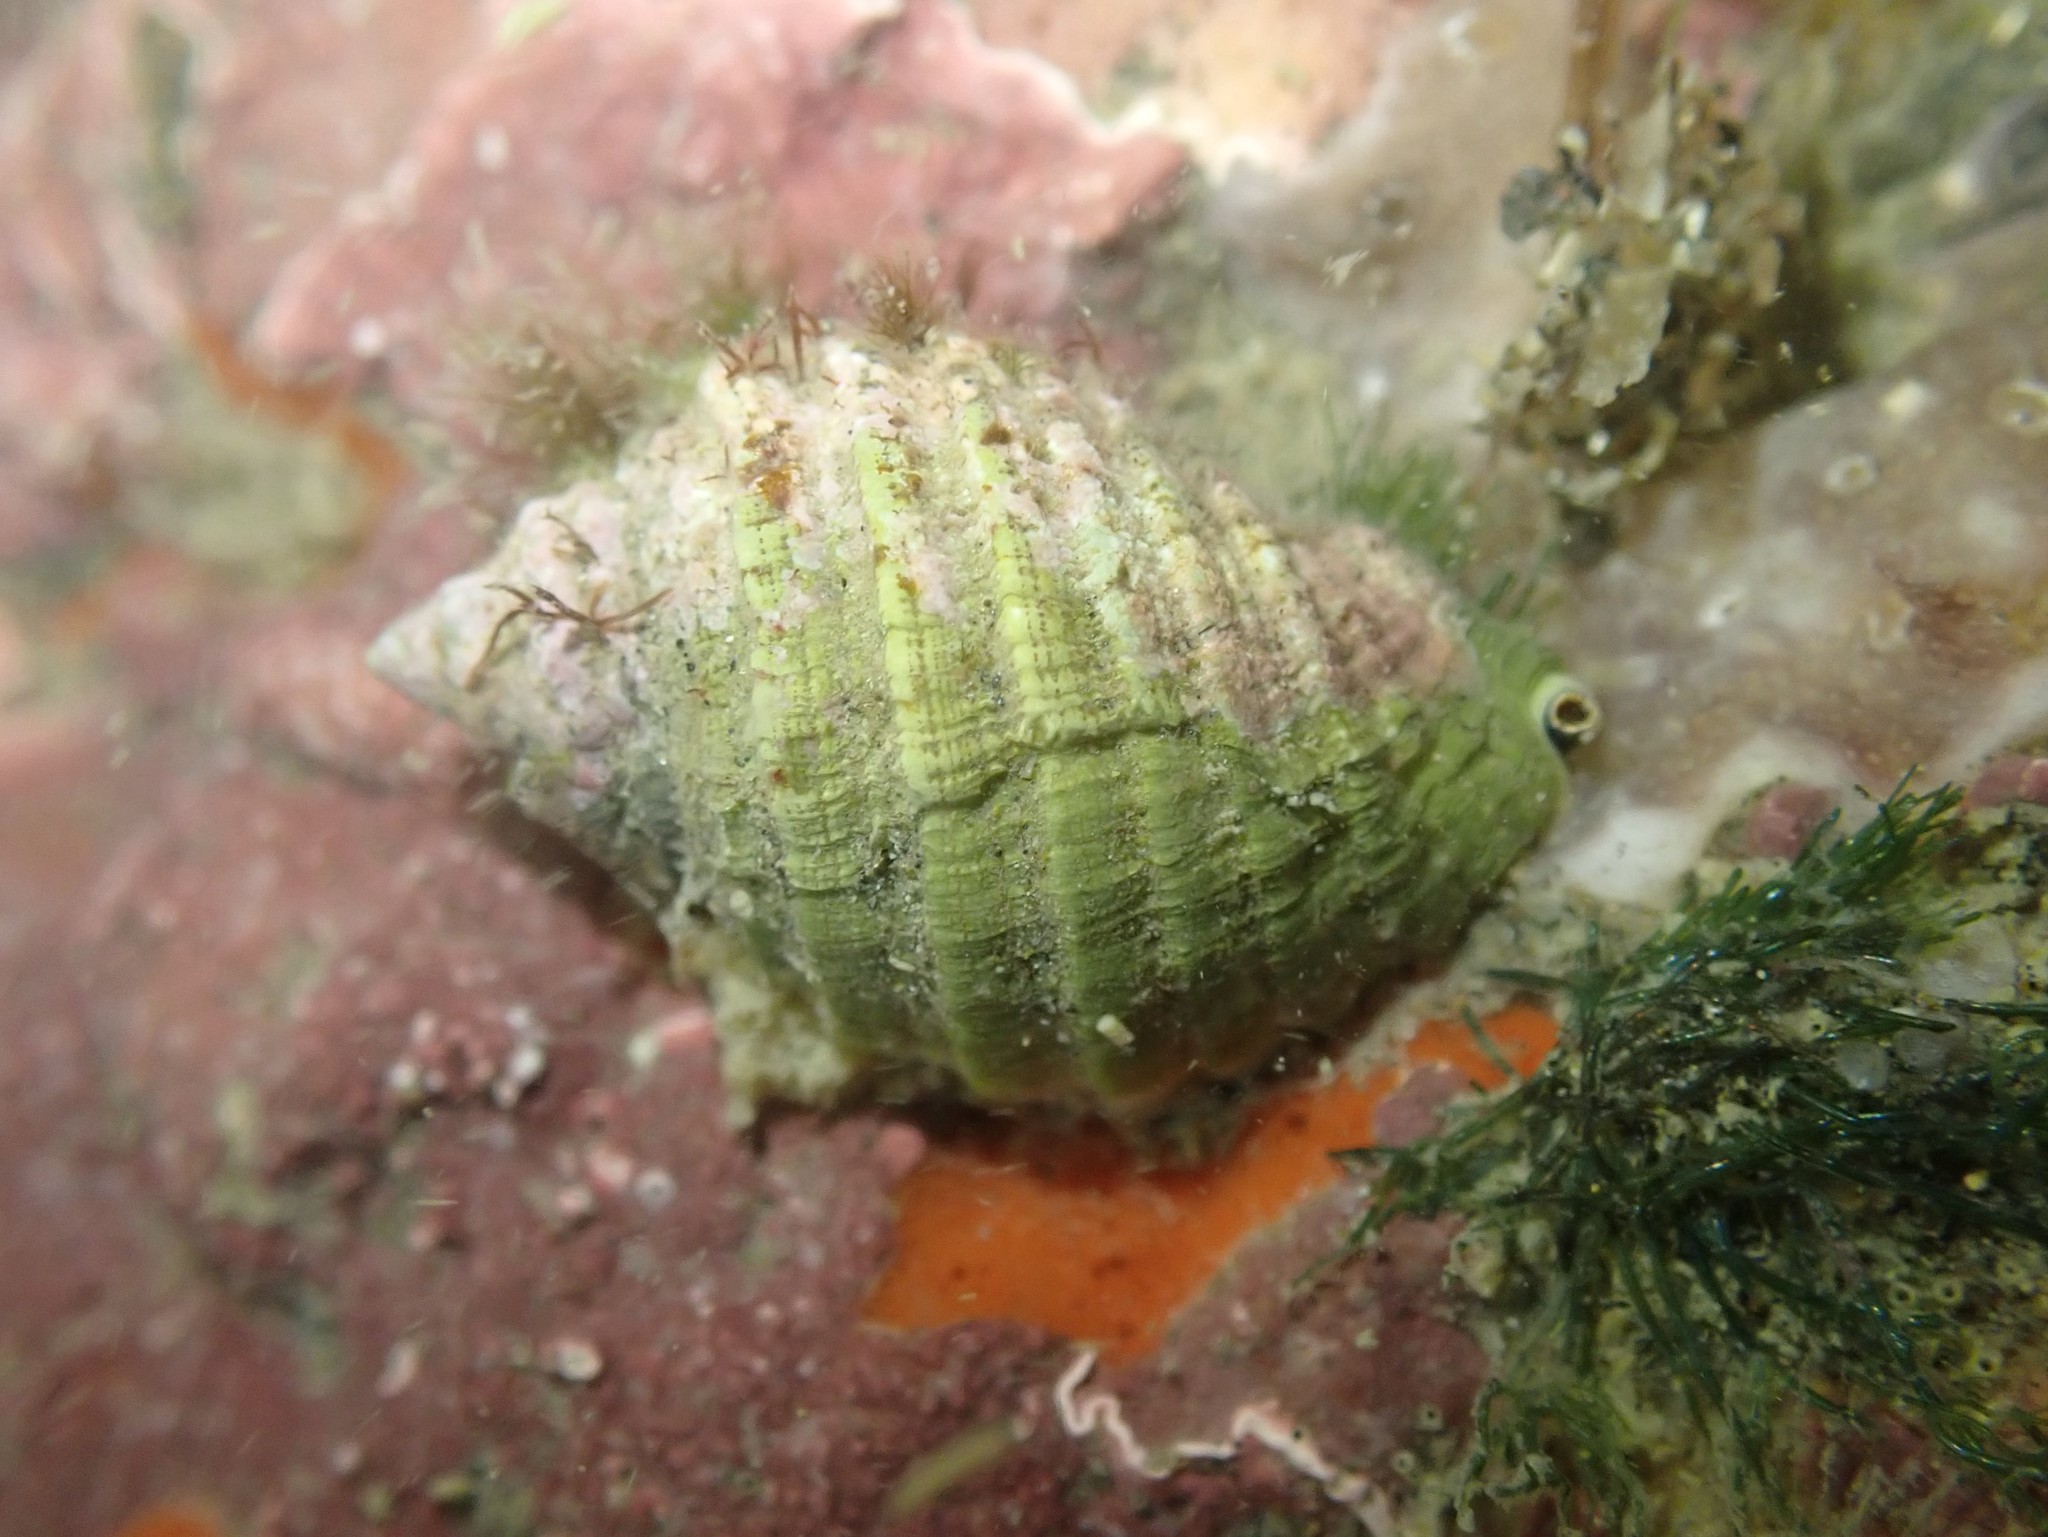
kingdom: Animalia
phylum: Mollusca
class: Gastropoda
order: Neogastropoda
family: Muricidae
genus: Dicathais
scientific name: Dicathais orbita
